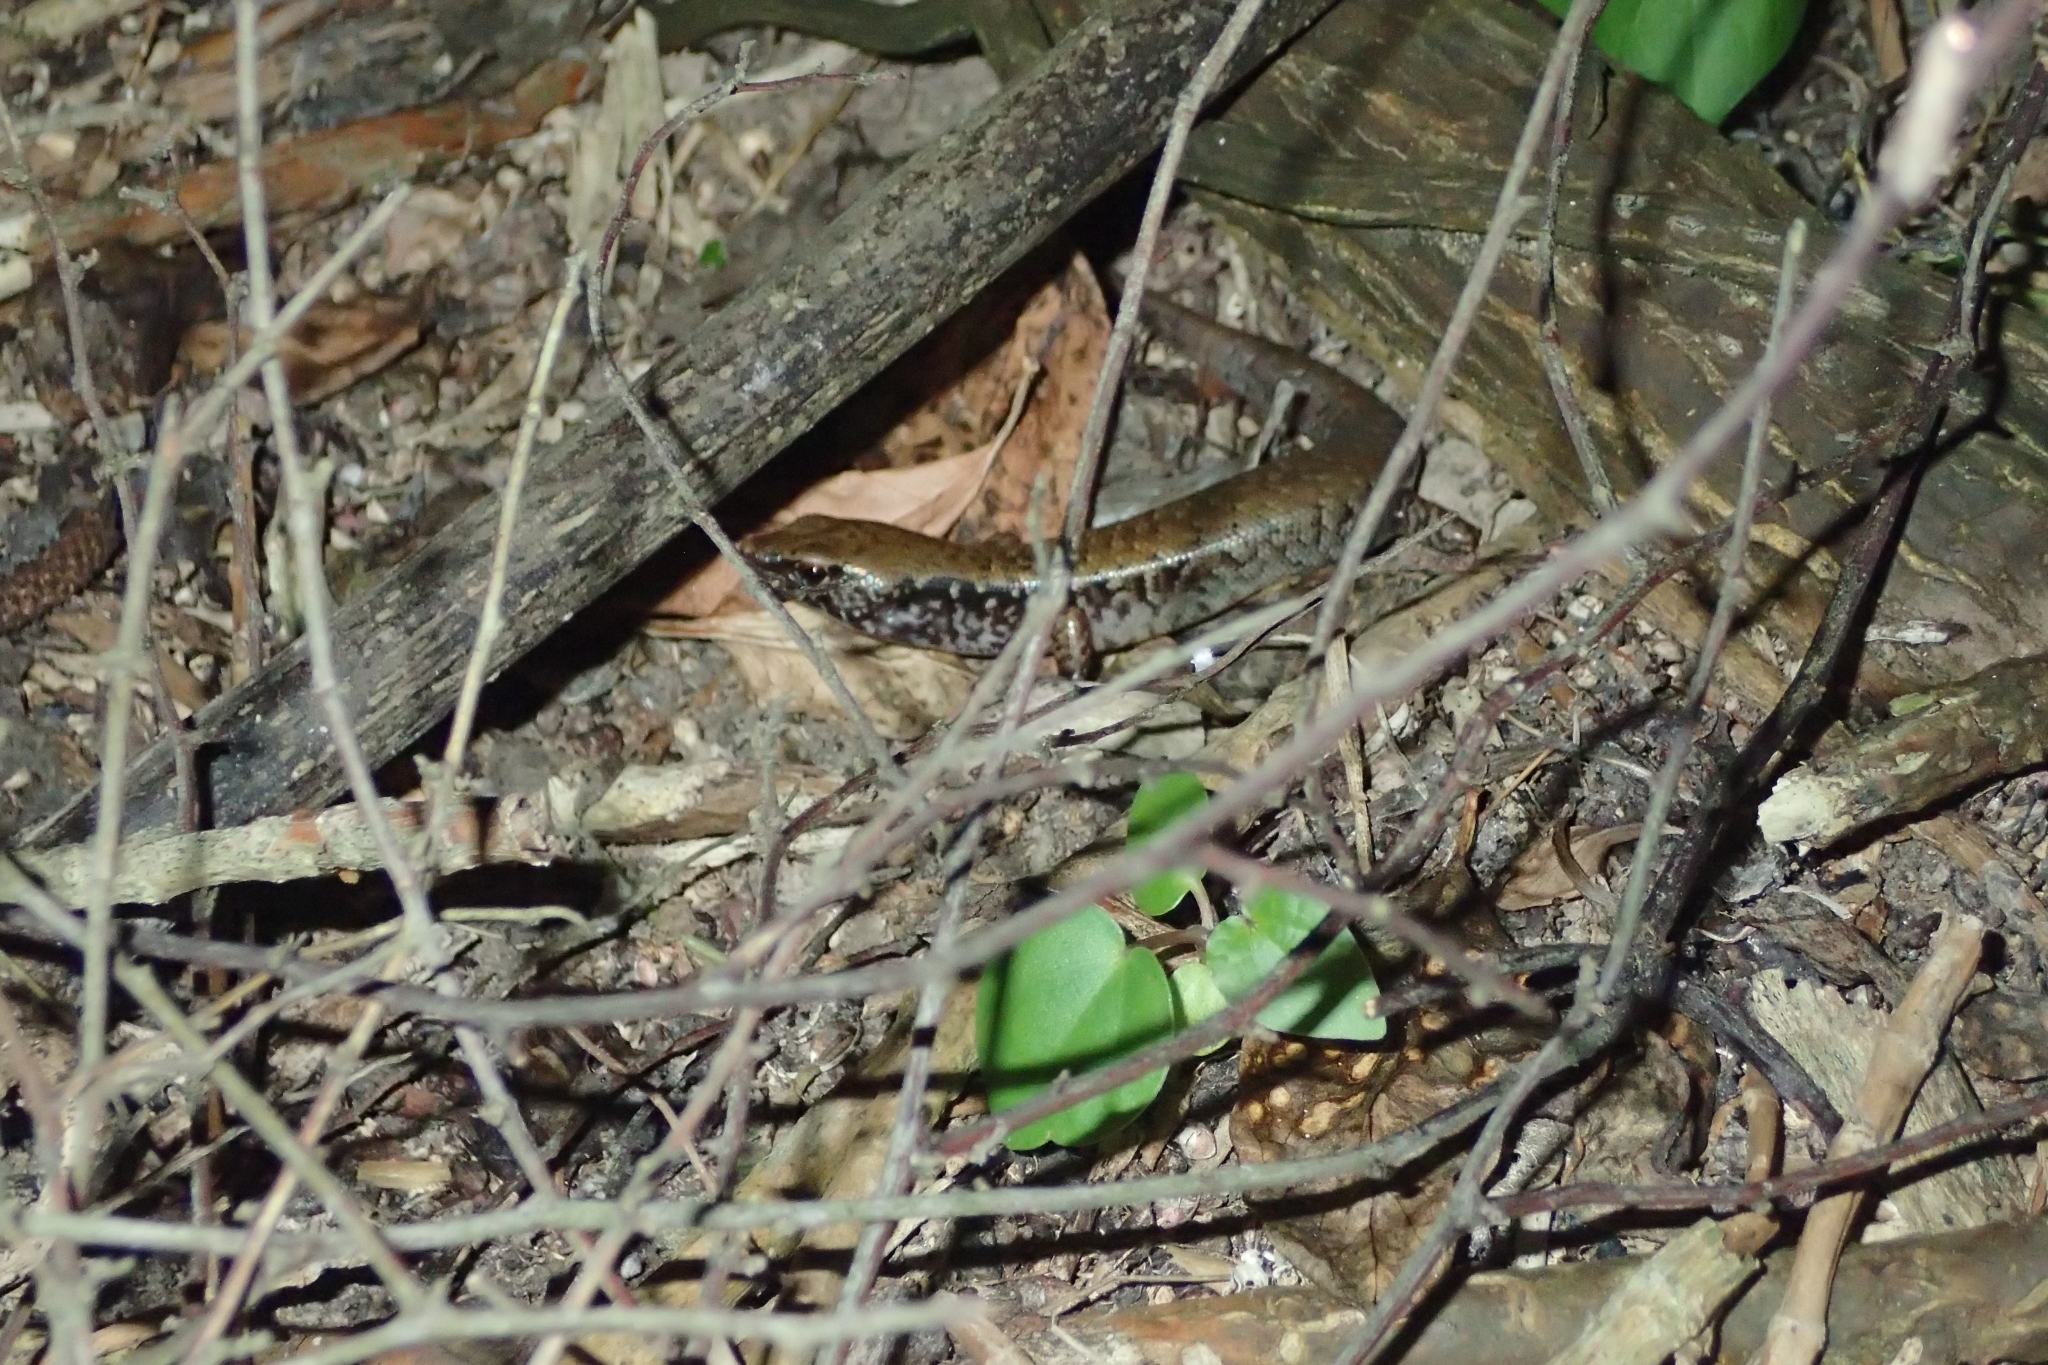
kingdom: Animalia
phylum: Chordata
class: Squamata
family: Scincidae
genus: Oligosoma
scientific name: Oligosoma townsi
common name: Towns’ skink
